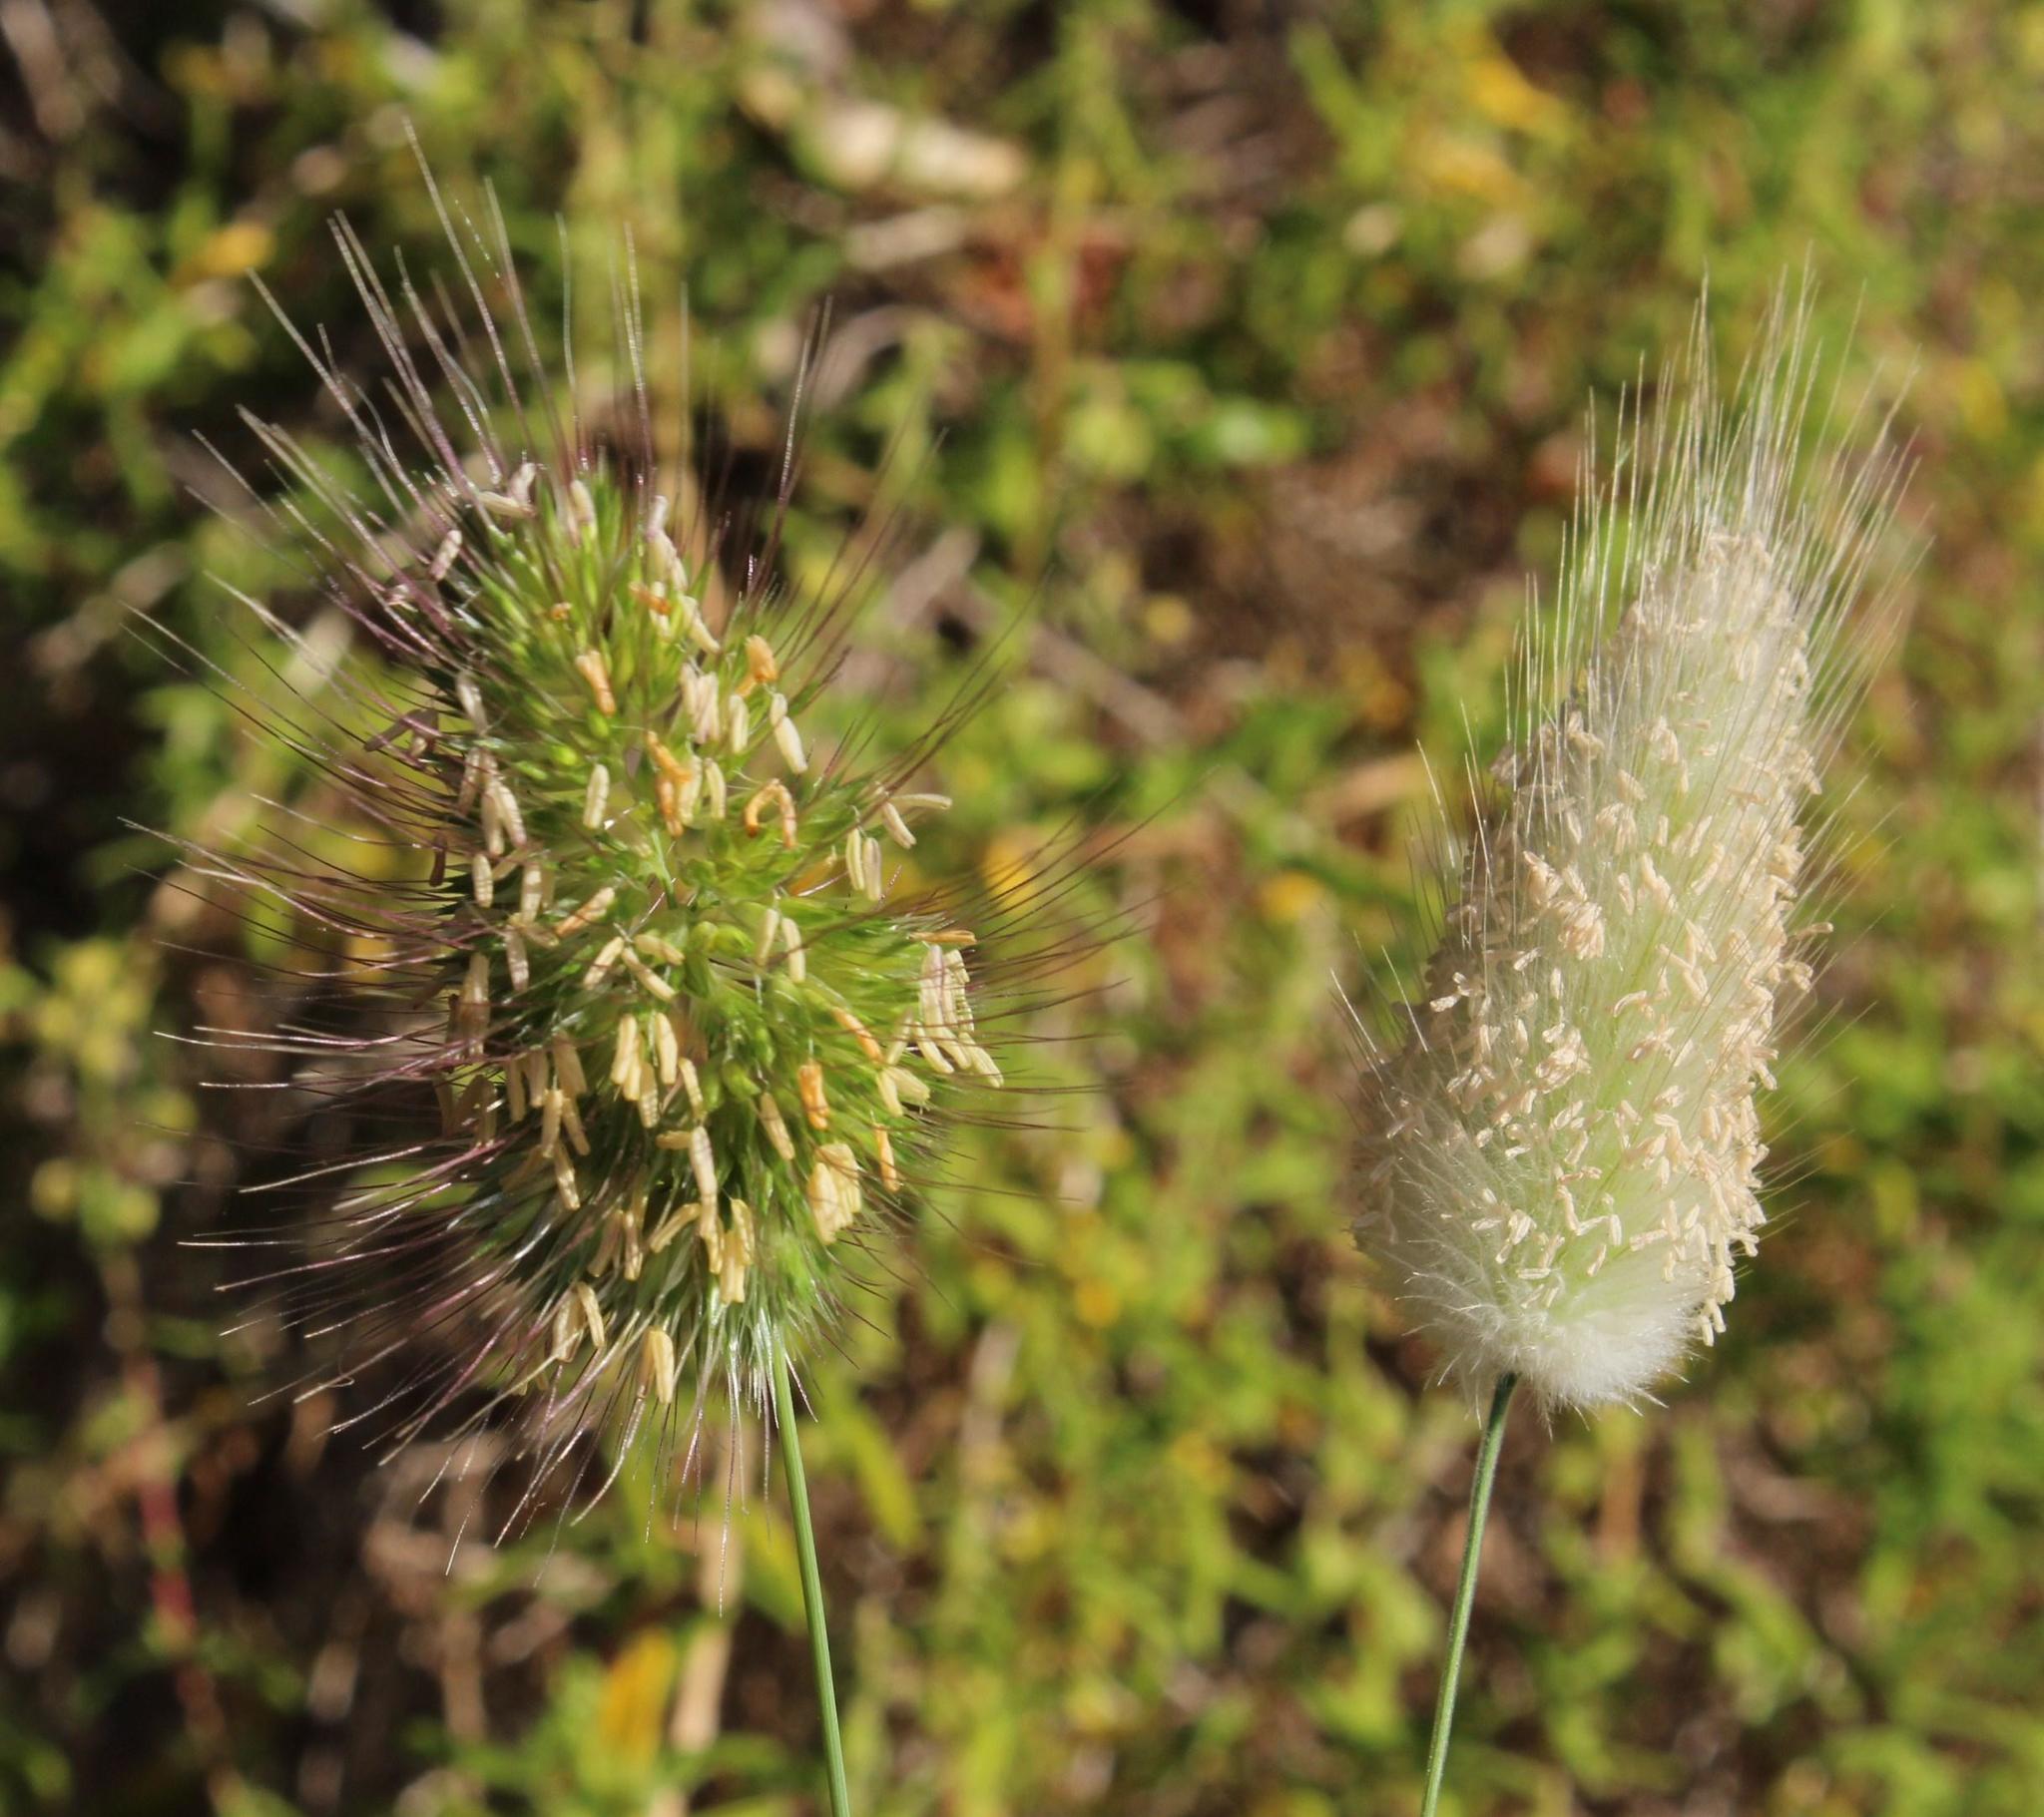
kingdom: Plantae
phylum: Tracheophyta
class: Liliopsida
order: Poales
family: Poaceae
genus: Lagurus
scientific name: Lagurus ovatus
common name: Hare's-tail
